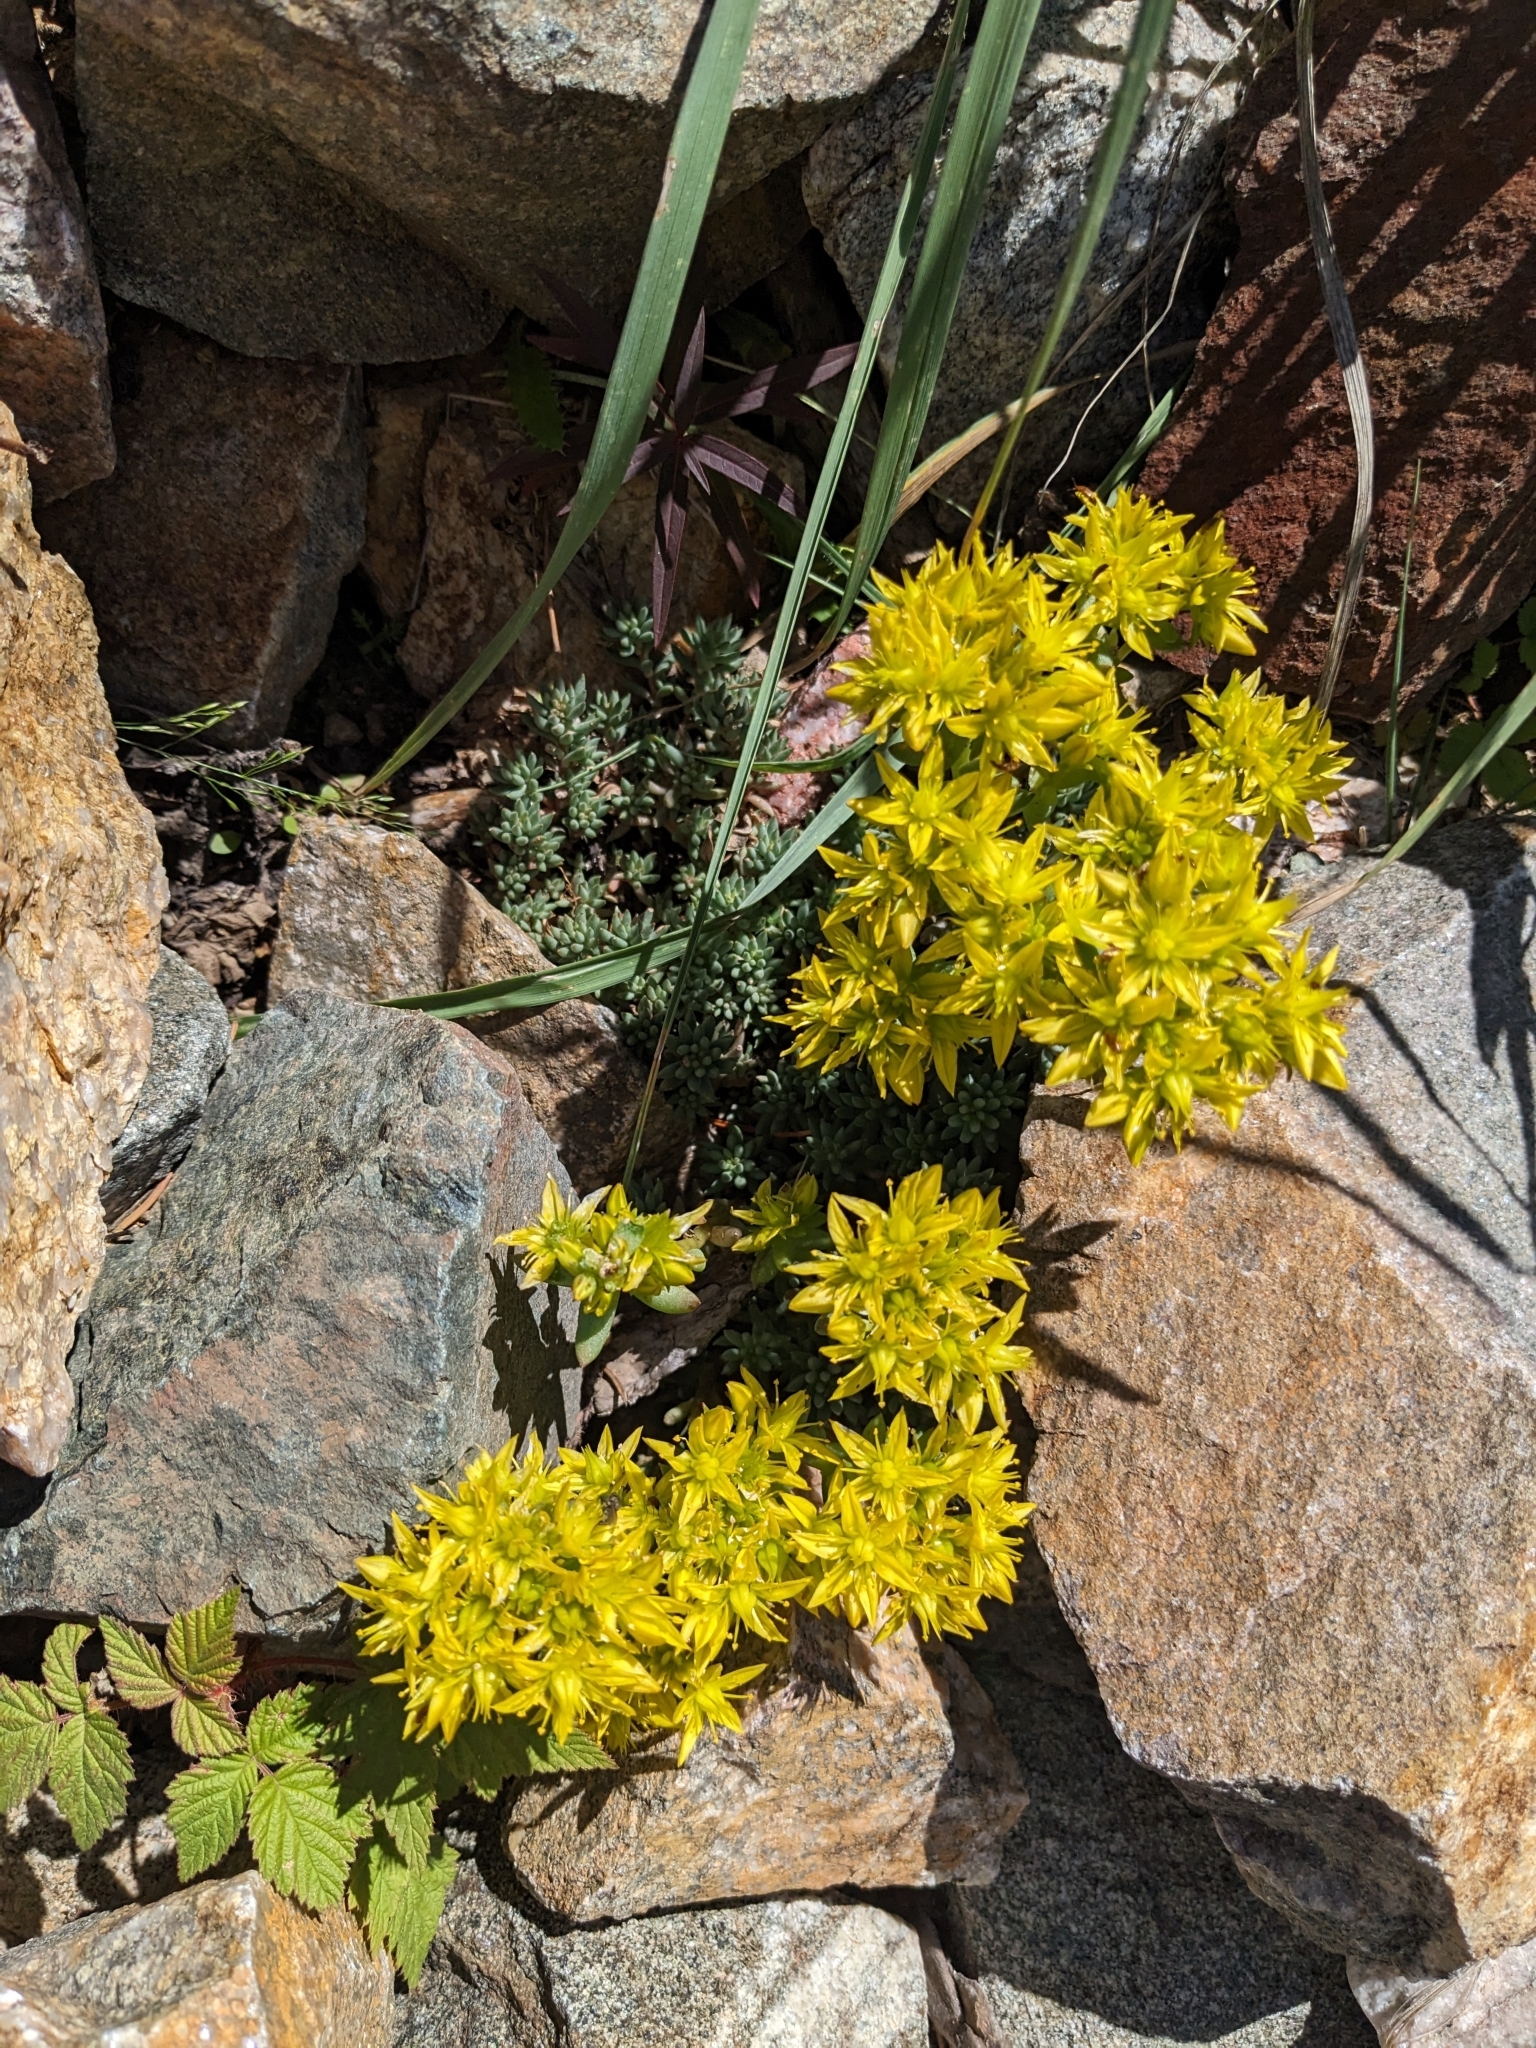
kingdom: Plantae
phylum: Tracheophyta
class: Magnoliopsida
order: Saxifragales
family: Crassulaceae
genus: Sedum
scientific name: Sedum lanceolatum
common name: Common stonecrop
